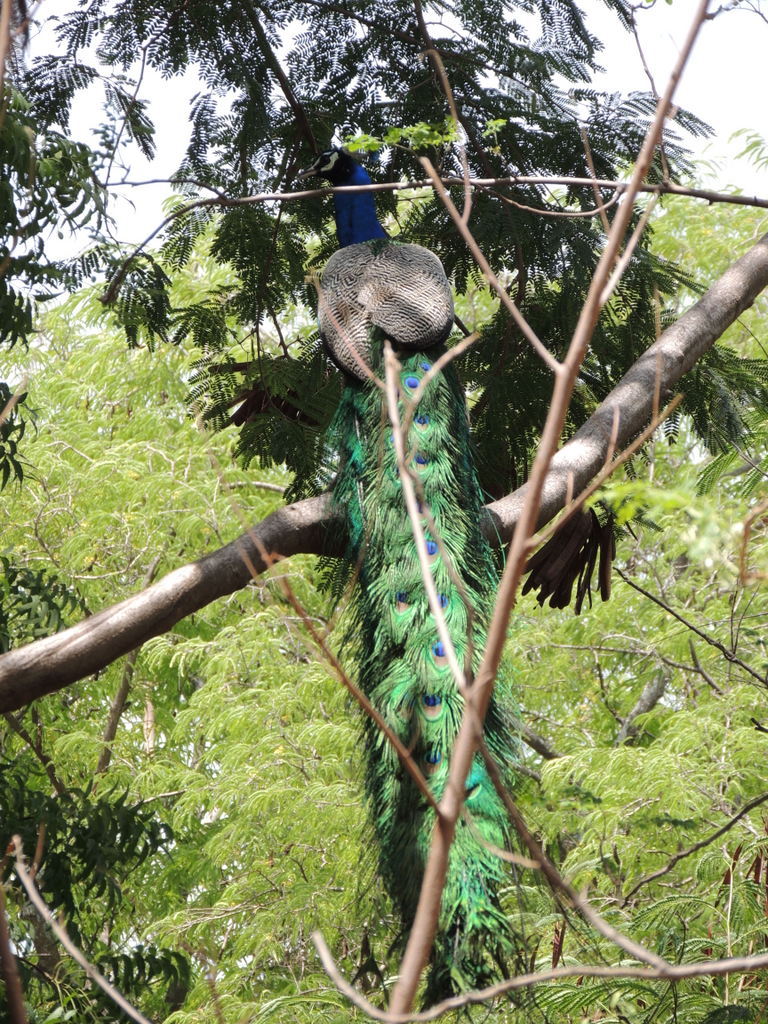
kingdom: Animalia
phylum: Chordata
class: Aves
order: Galliformes
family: Phasianidae
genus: Pavo
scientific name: Pavo cristatus
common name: Indian peafowl
